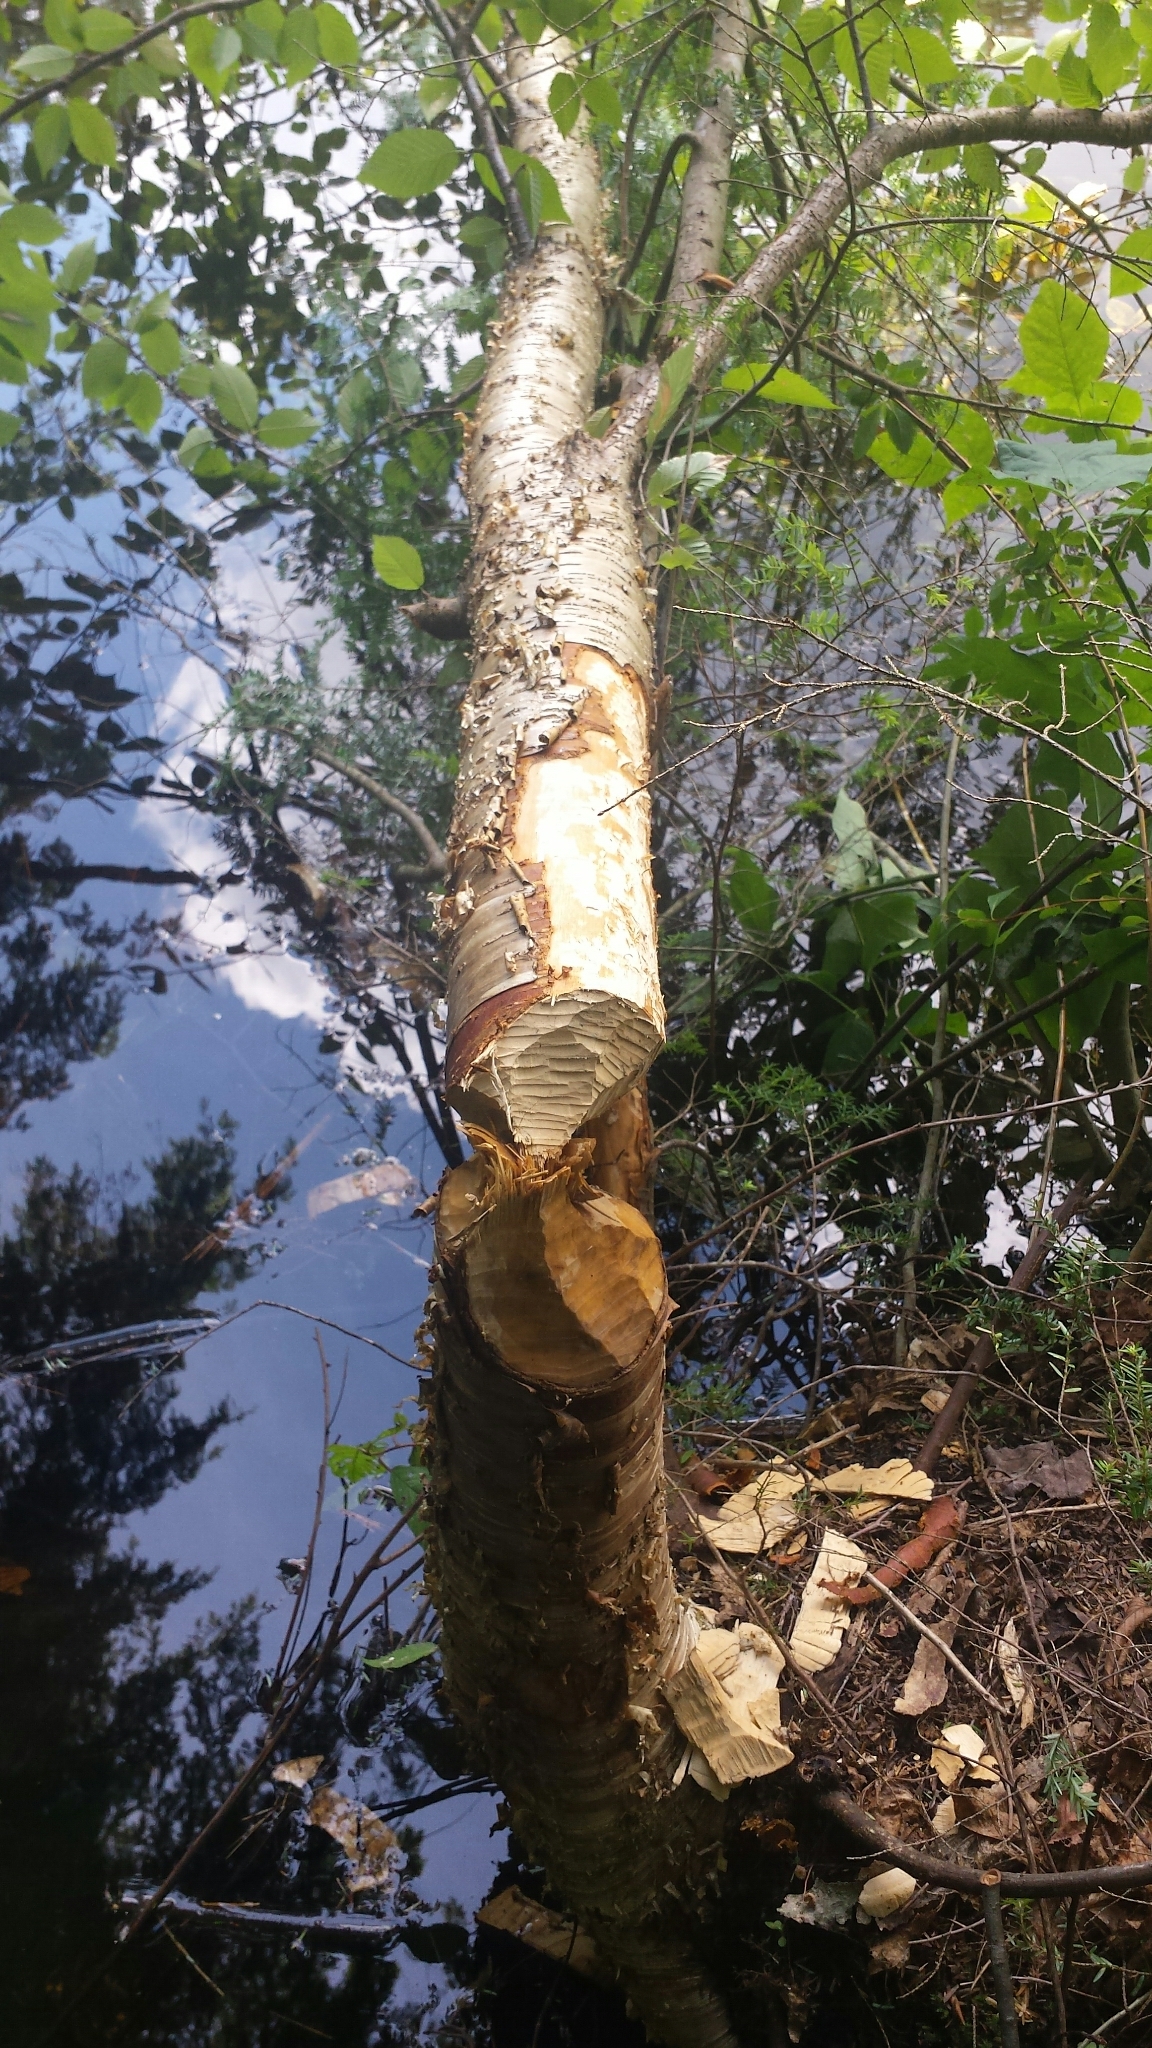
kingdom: Animalia
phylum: Chordata
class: Mammalia
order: Rodentia
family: Castoridae
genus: Castor
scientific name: Castor canadensis
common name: American beaver
